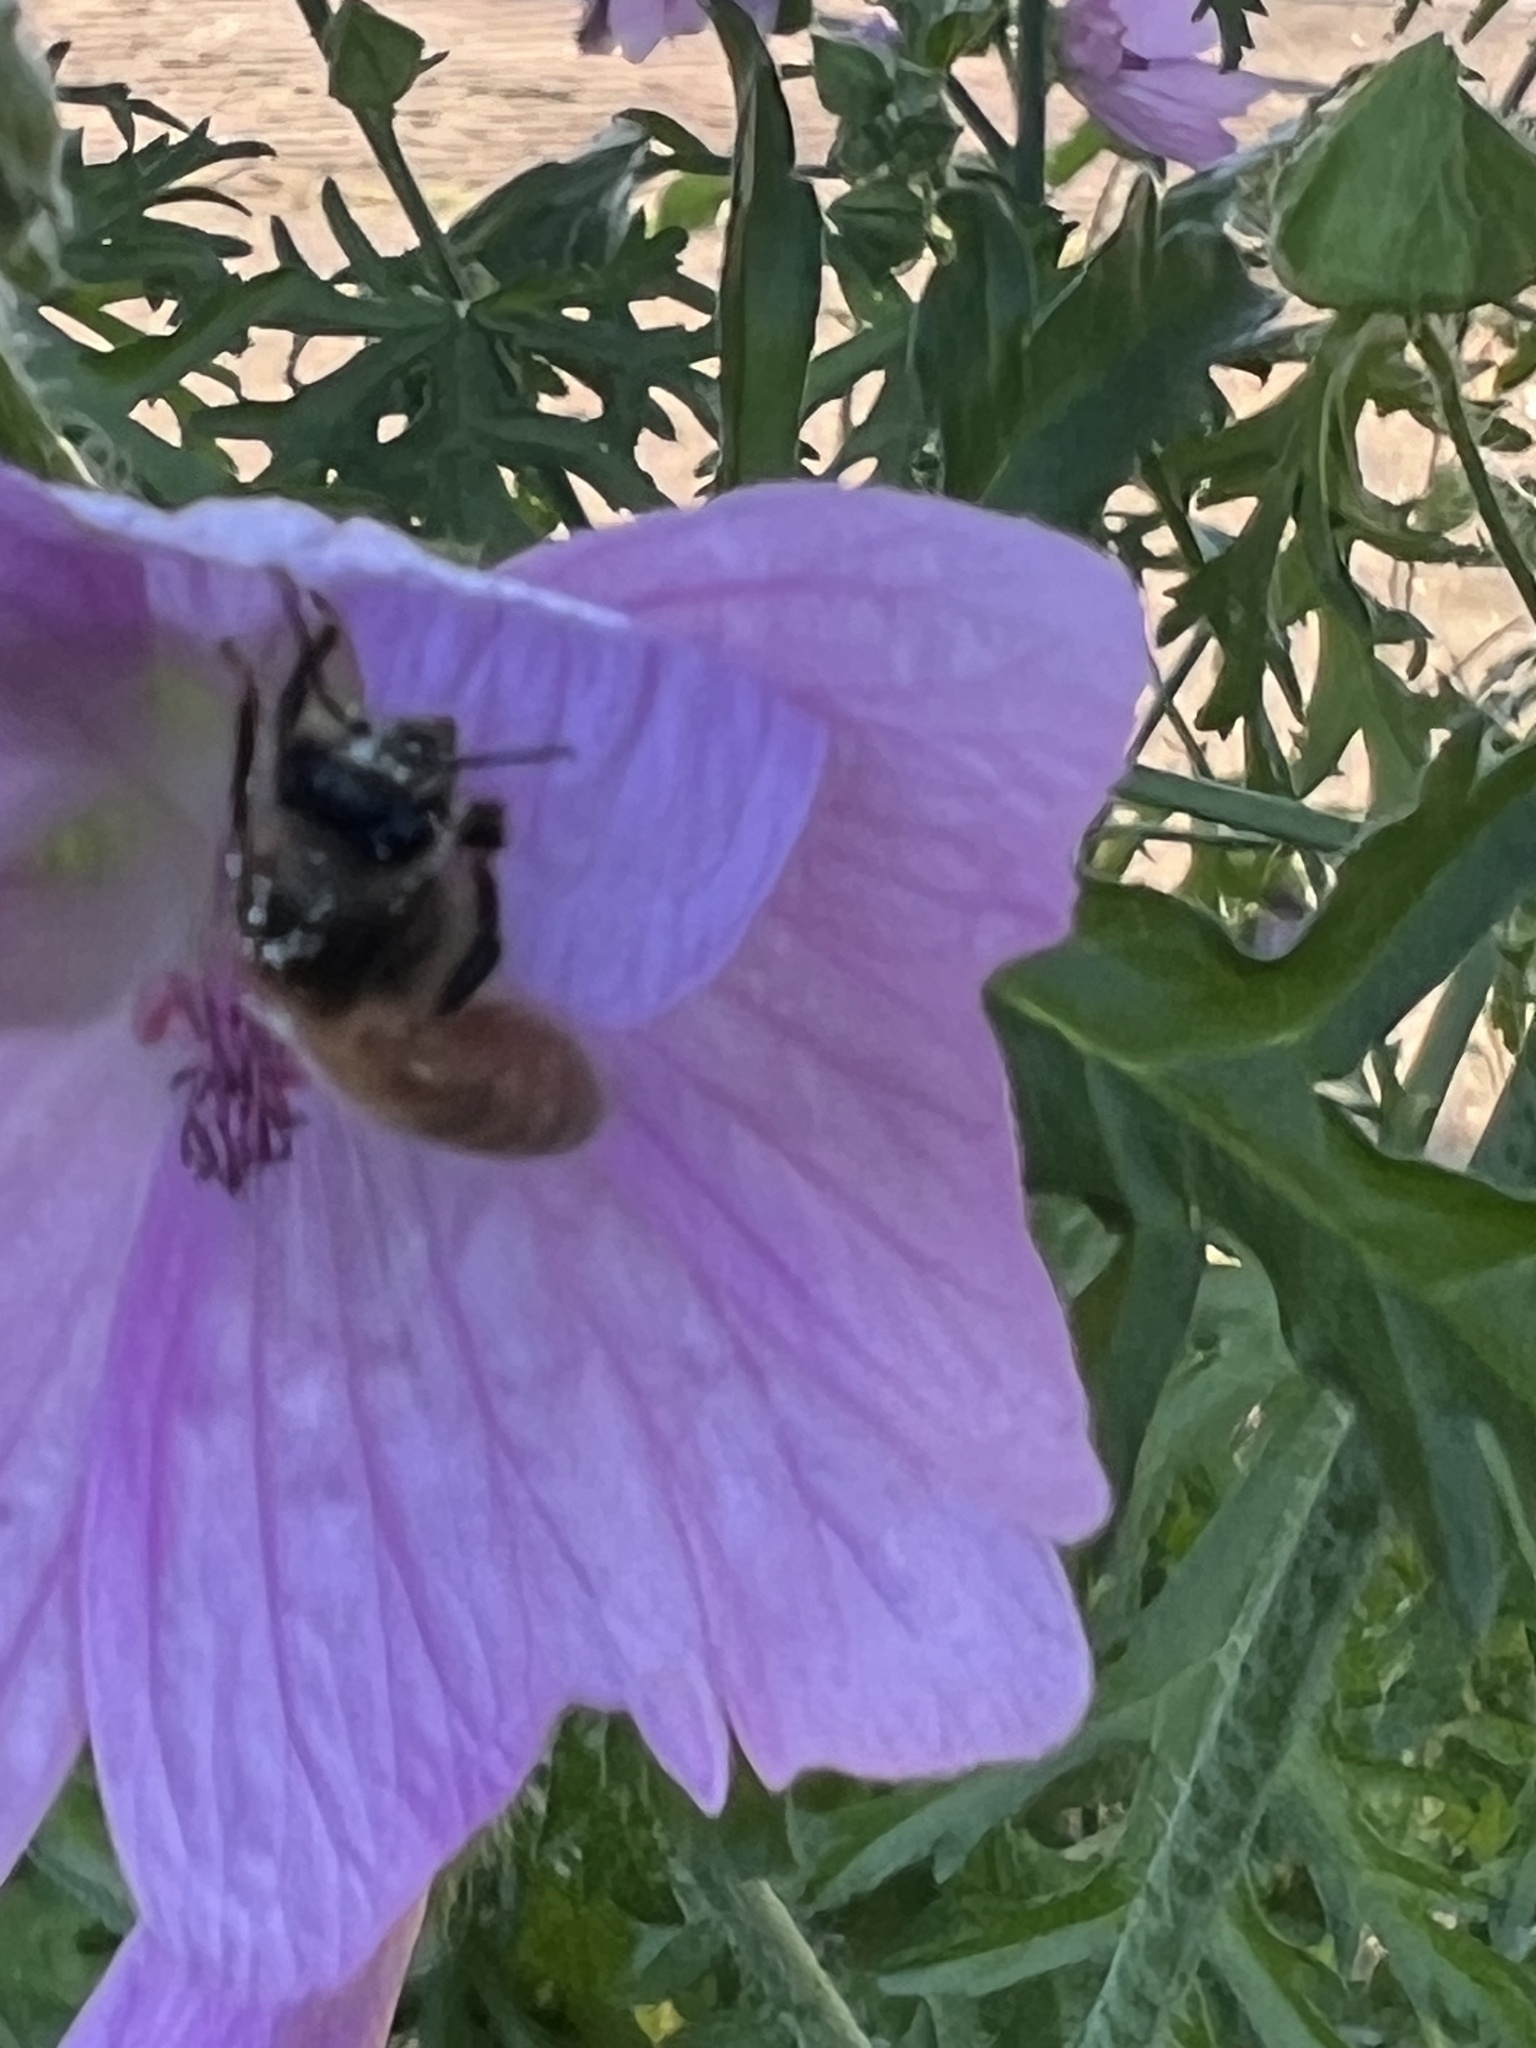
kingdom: Animalia
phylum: Arthropoda
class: Insecta
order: Hymenoptera
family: Apidae
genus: Apis
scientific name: Apis mellifera
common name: Honey bee
